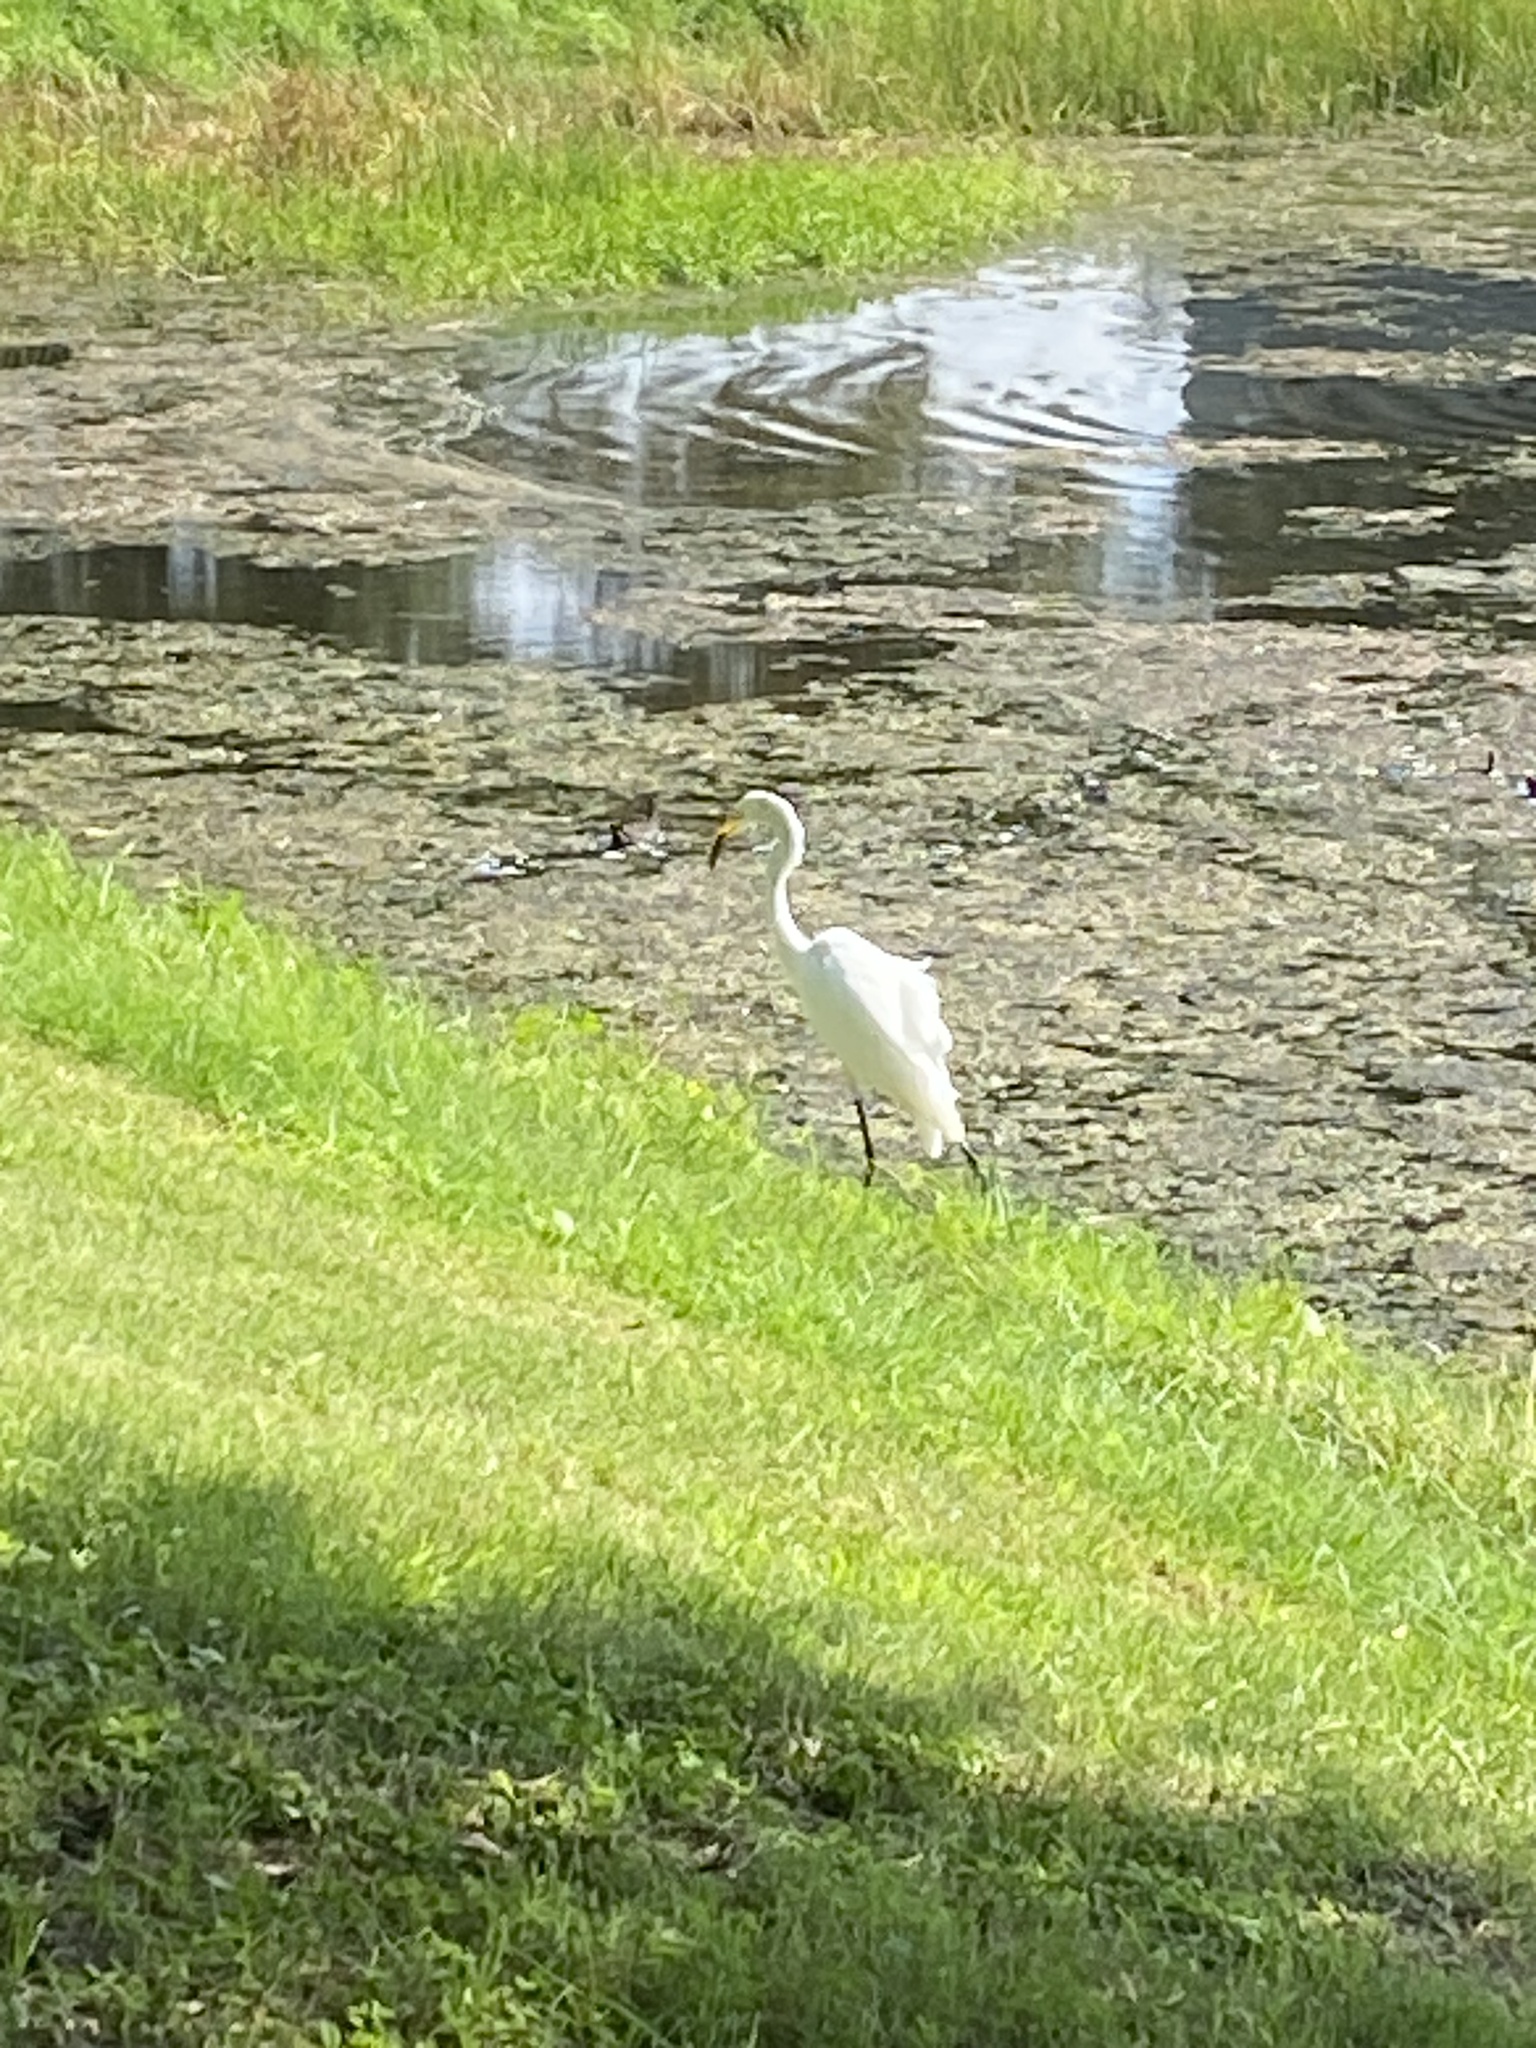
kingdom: Animalia
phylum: Chordata
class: Aves
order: Pelecaniformes
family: Ardeidae
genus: Ardea
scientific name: Ardea alba
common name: Great egret
